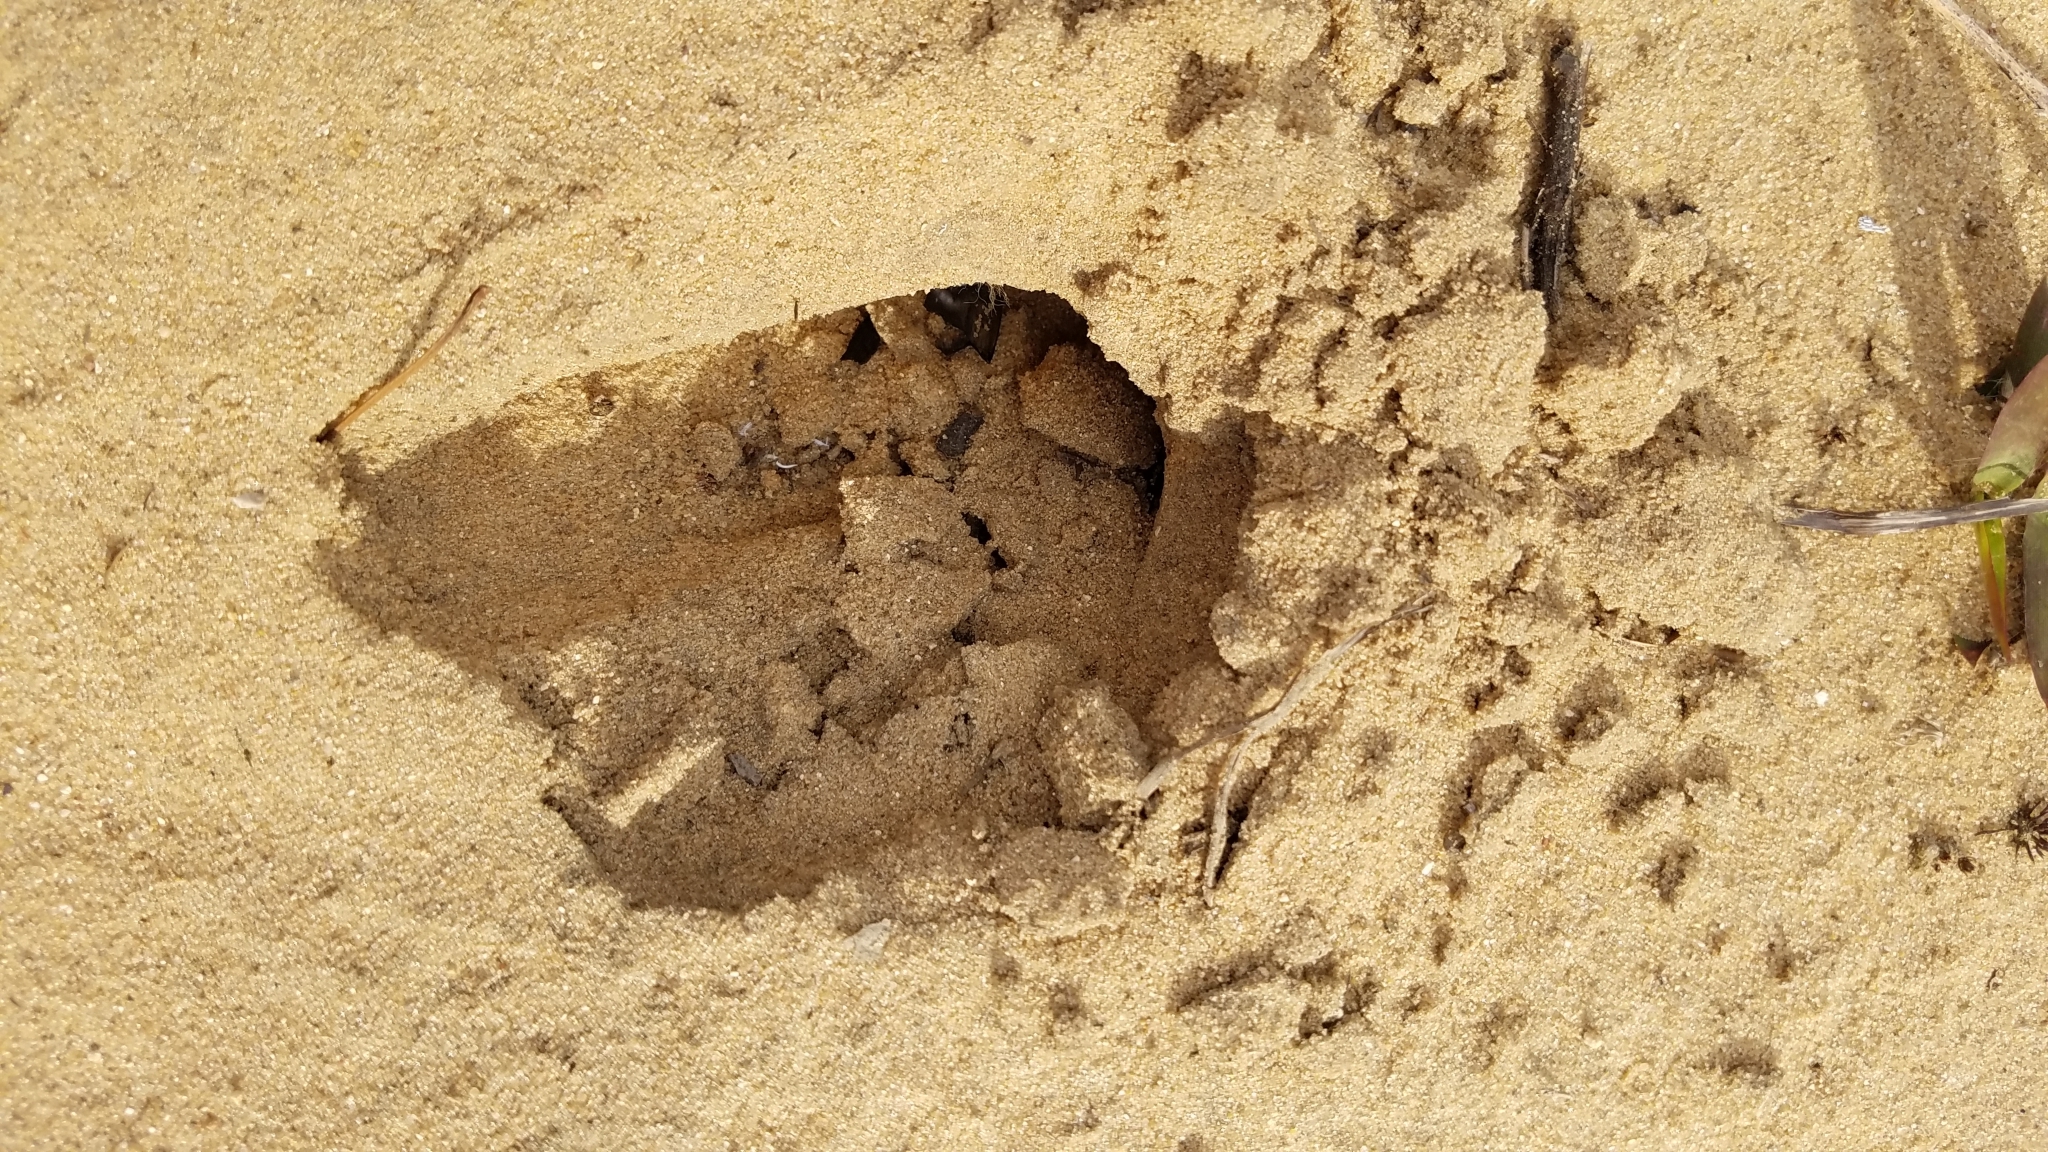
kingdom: Animalia
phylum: Chordata
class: Mammalia
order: Artiodactyla
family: Cervidae
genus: Odocoileus
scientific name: Odocoileus virginianus
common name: White-tailed deer
